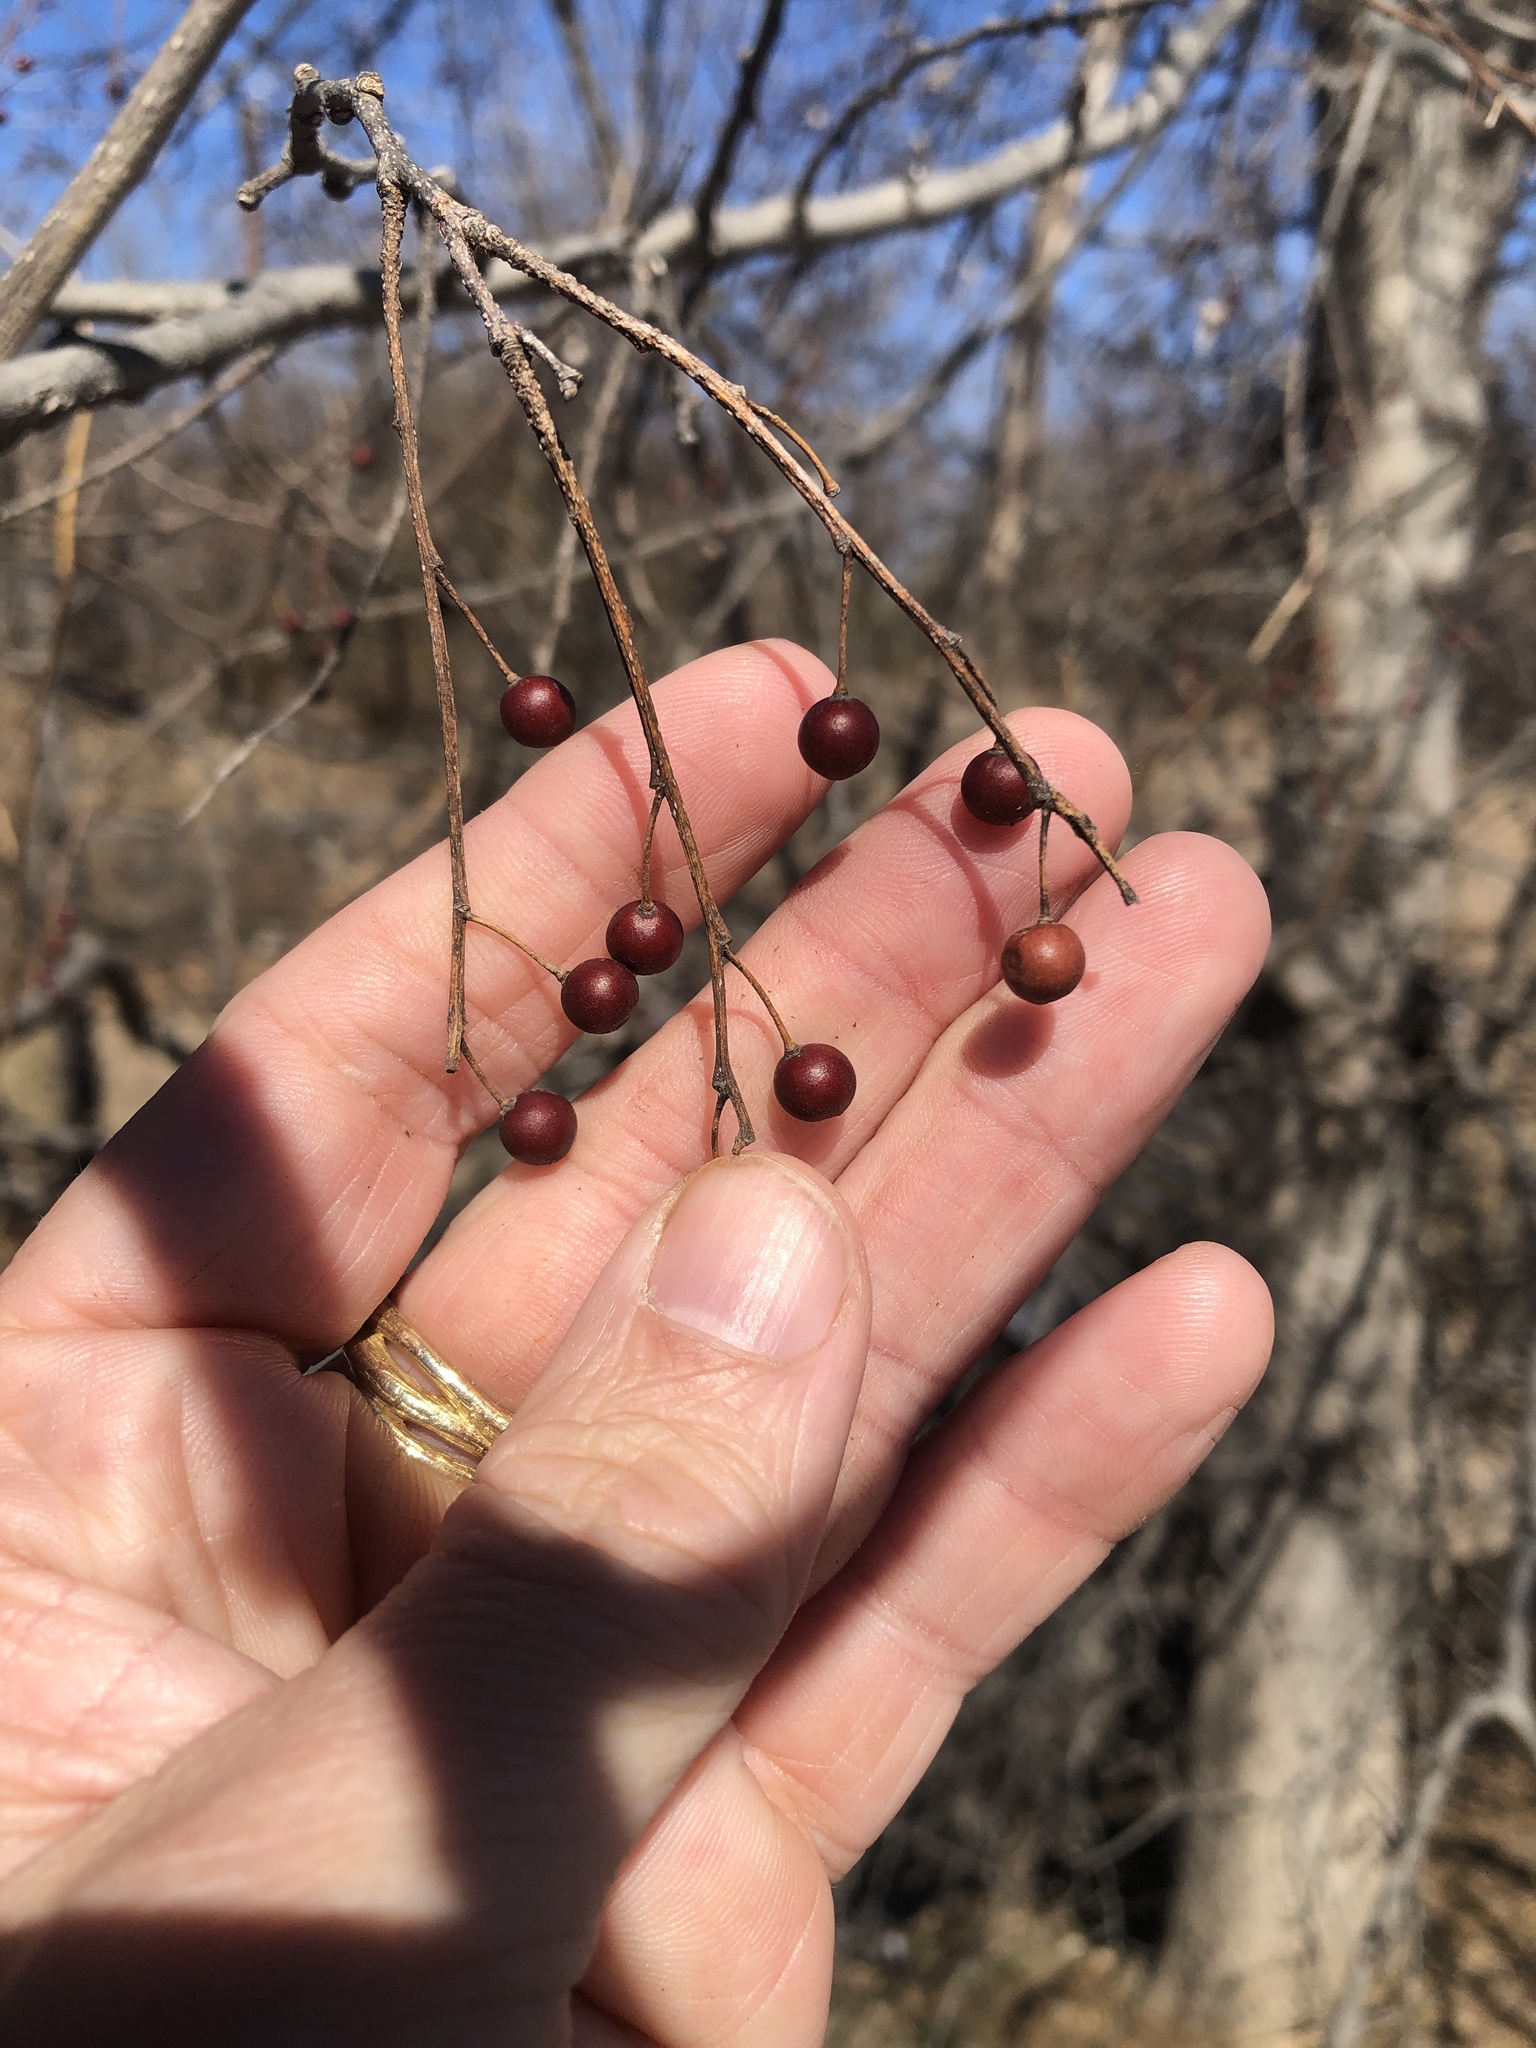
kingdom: Plantae
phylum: Tracheophyta
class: Magnoliopsida
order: Rosales
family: Cannabaceae
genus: Celtis
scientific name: Celtis laevigata
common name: Sugarberry
